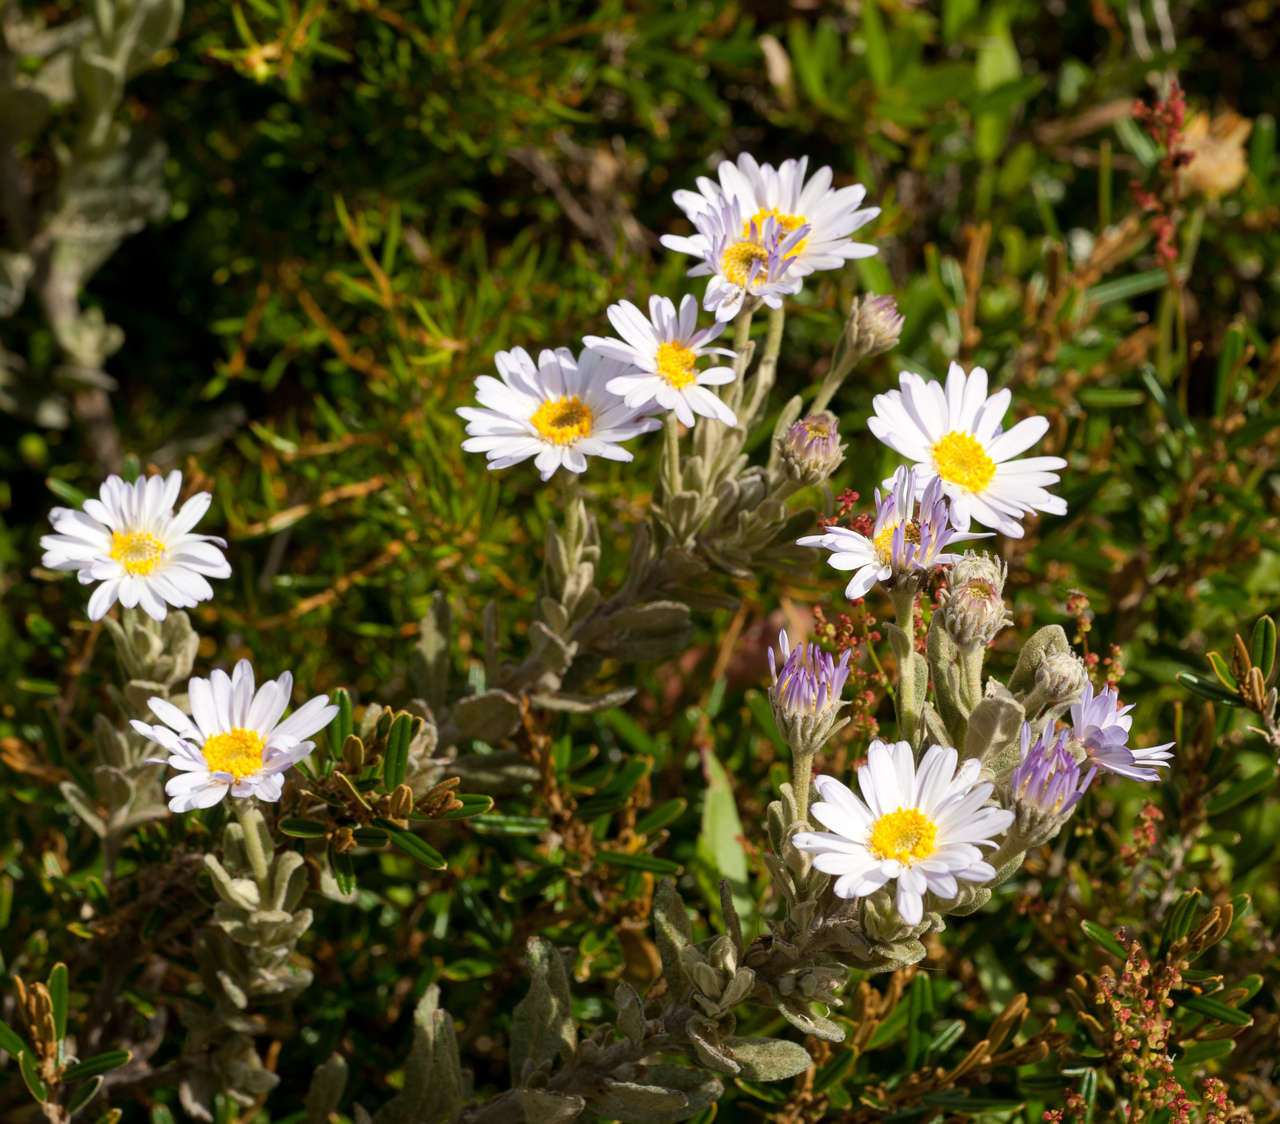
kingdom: Plantae
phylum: Tracheophyta
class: Magnoliopsida
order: Asterales
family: Asteraceae
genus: Olearia
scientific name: Olearia frostii
